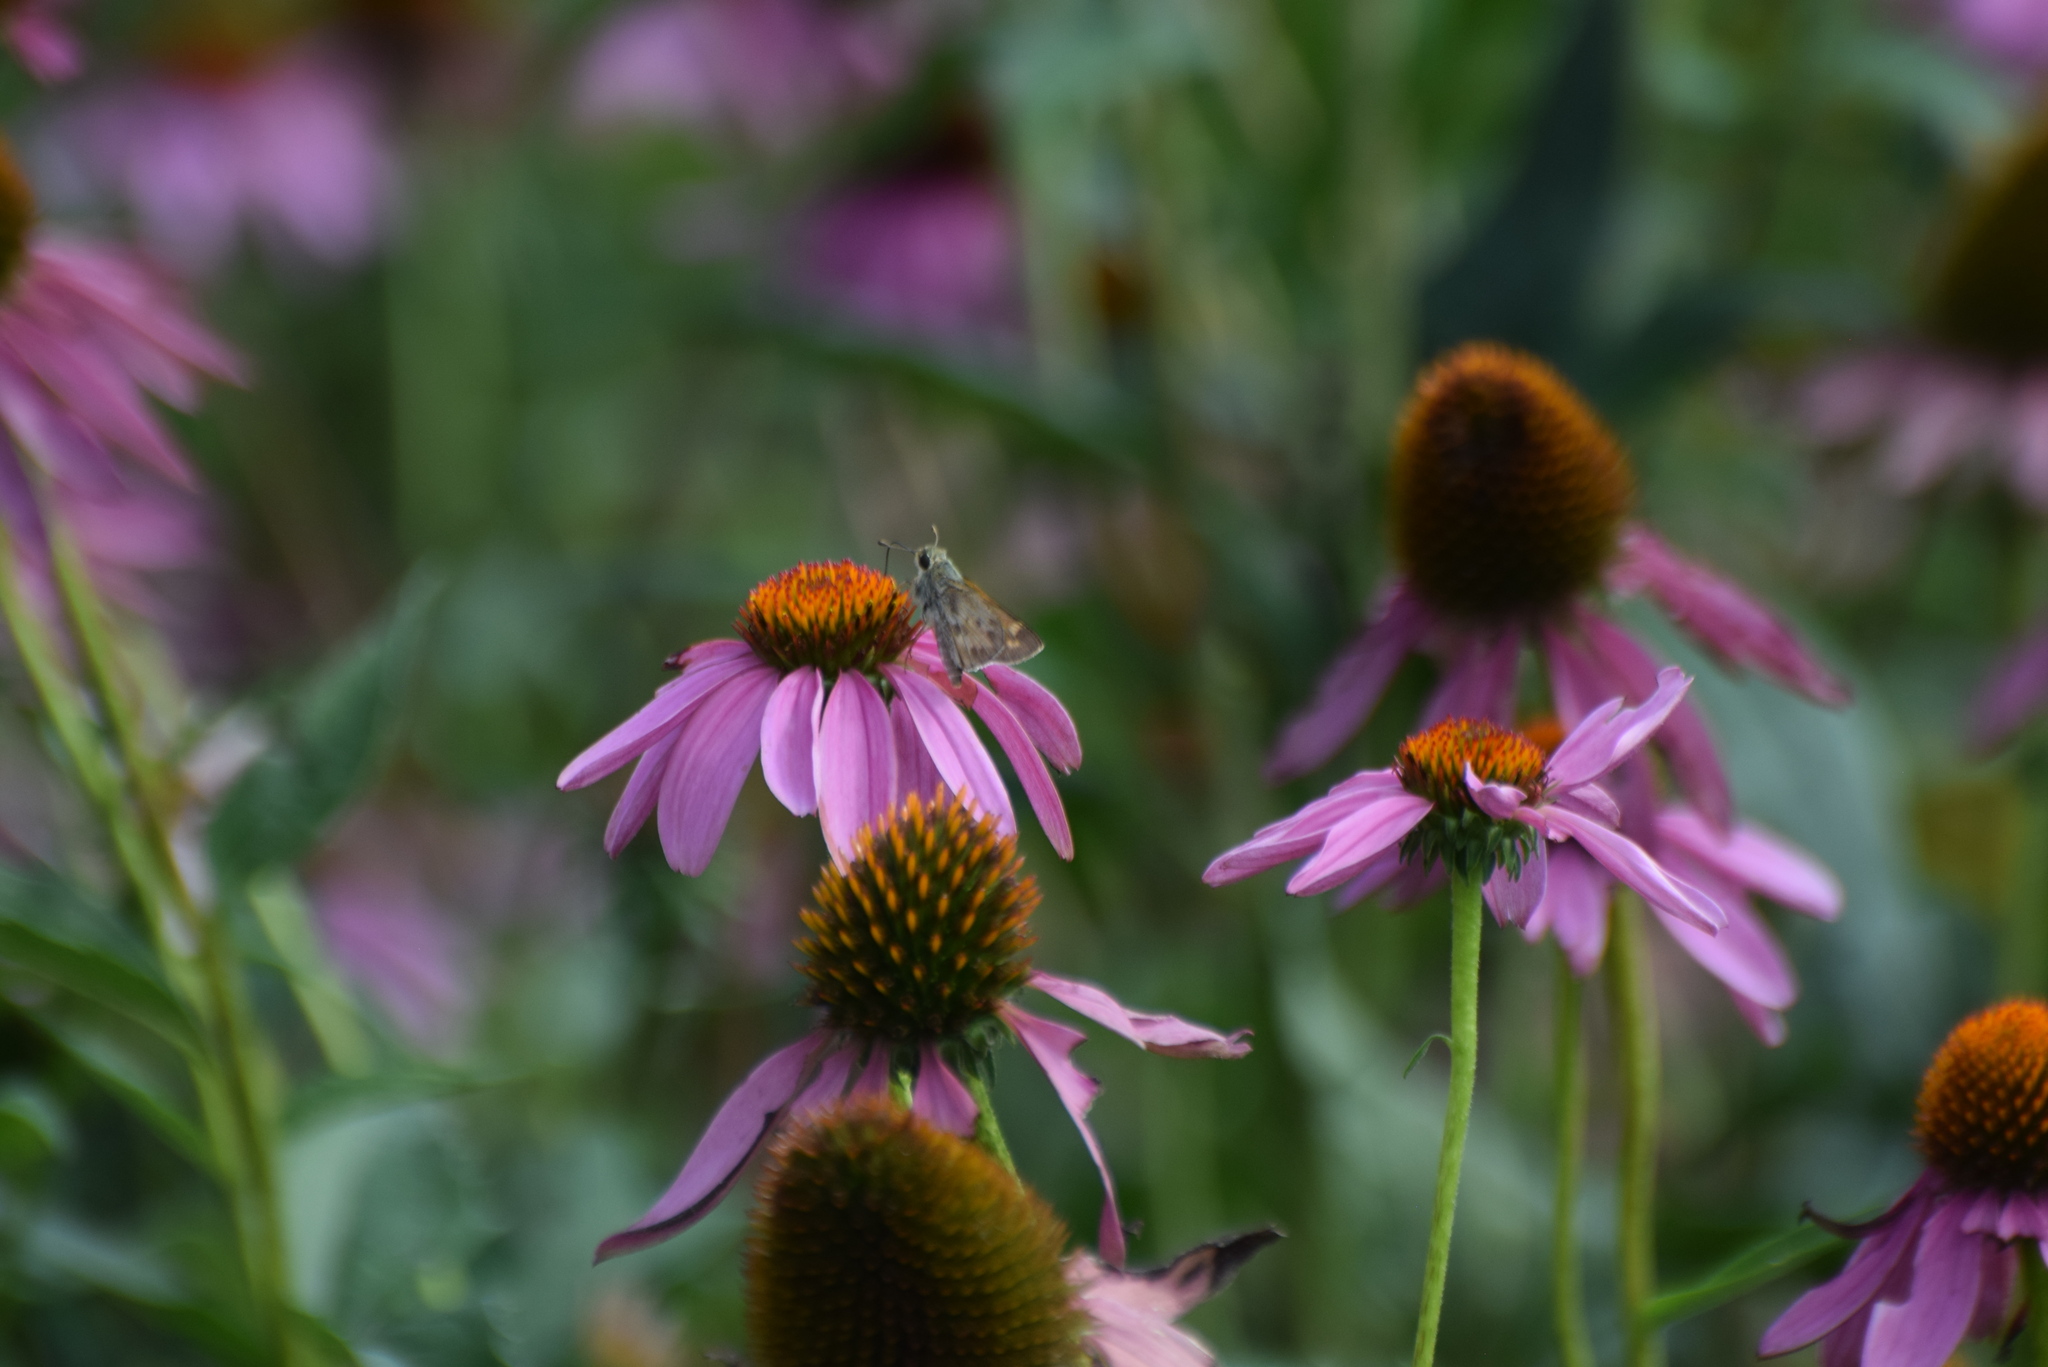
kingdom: Animalia
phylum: Arthropoda
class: Insecta
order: Lepidoptera
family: Hesperiidae
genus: Atalopedes
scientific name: Atalopedes
